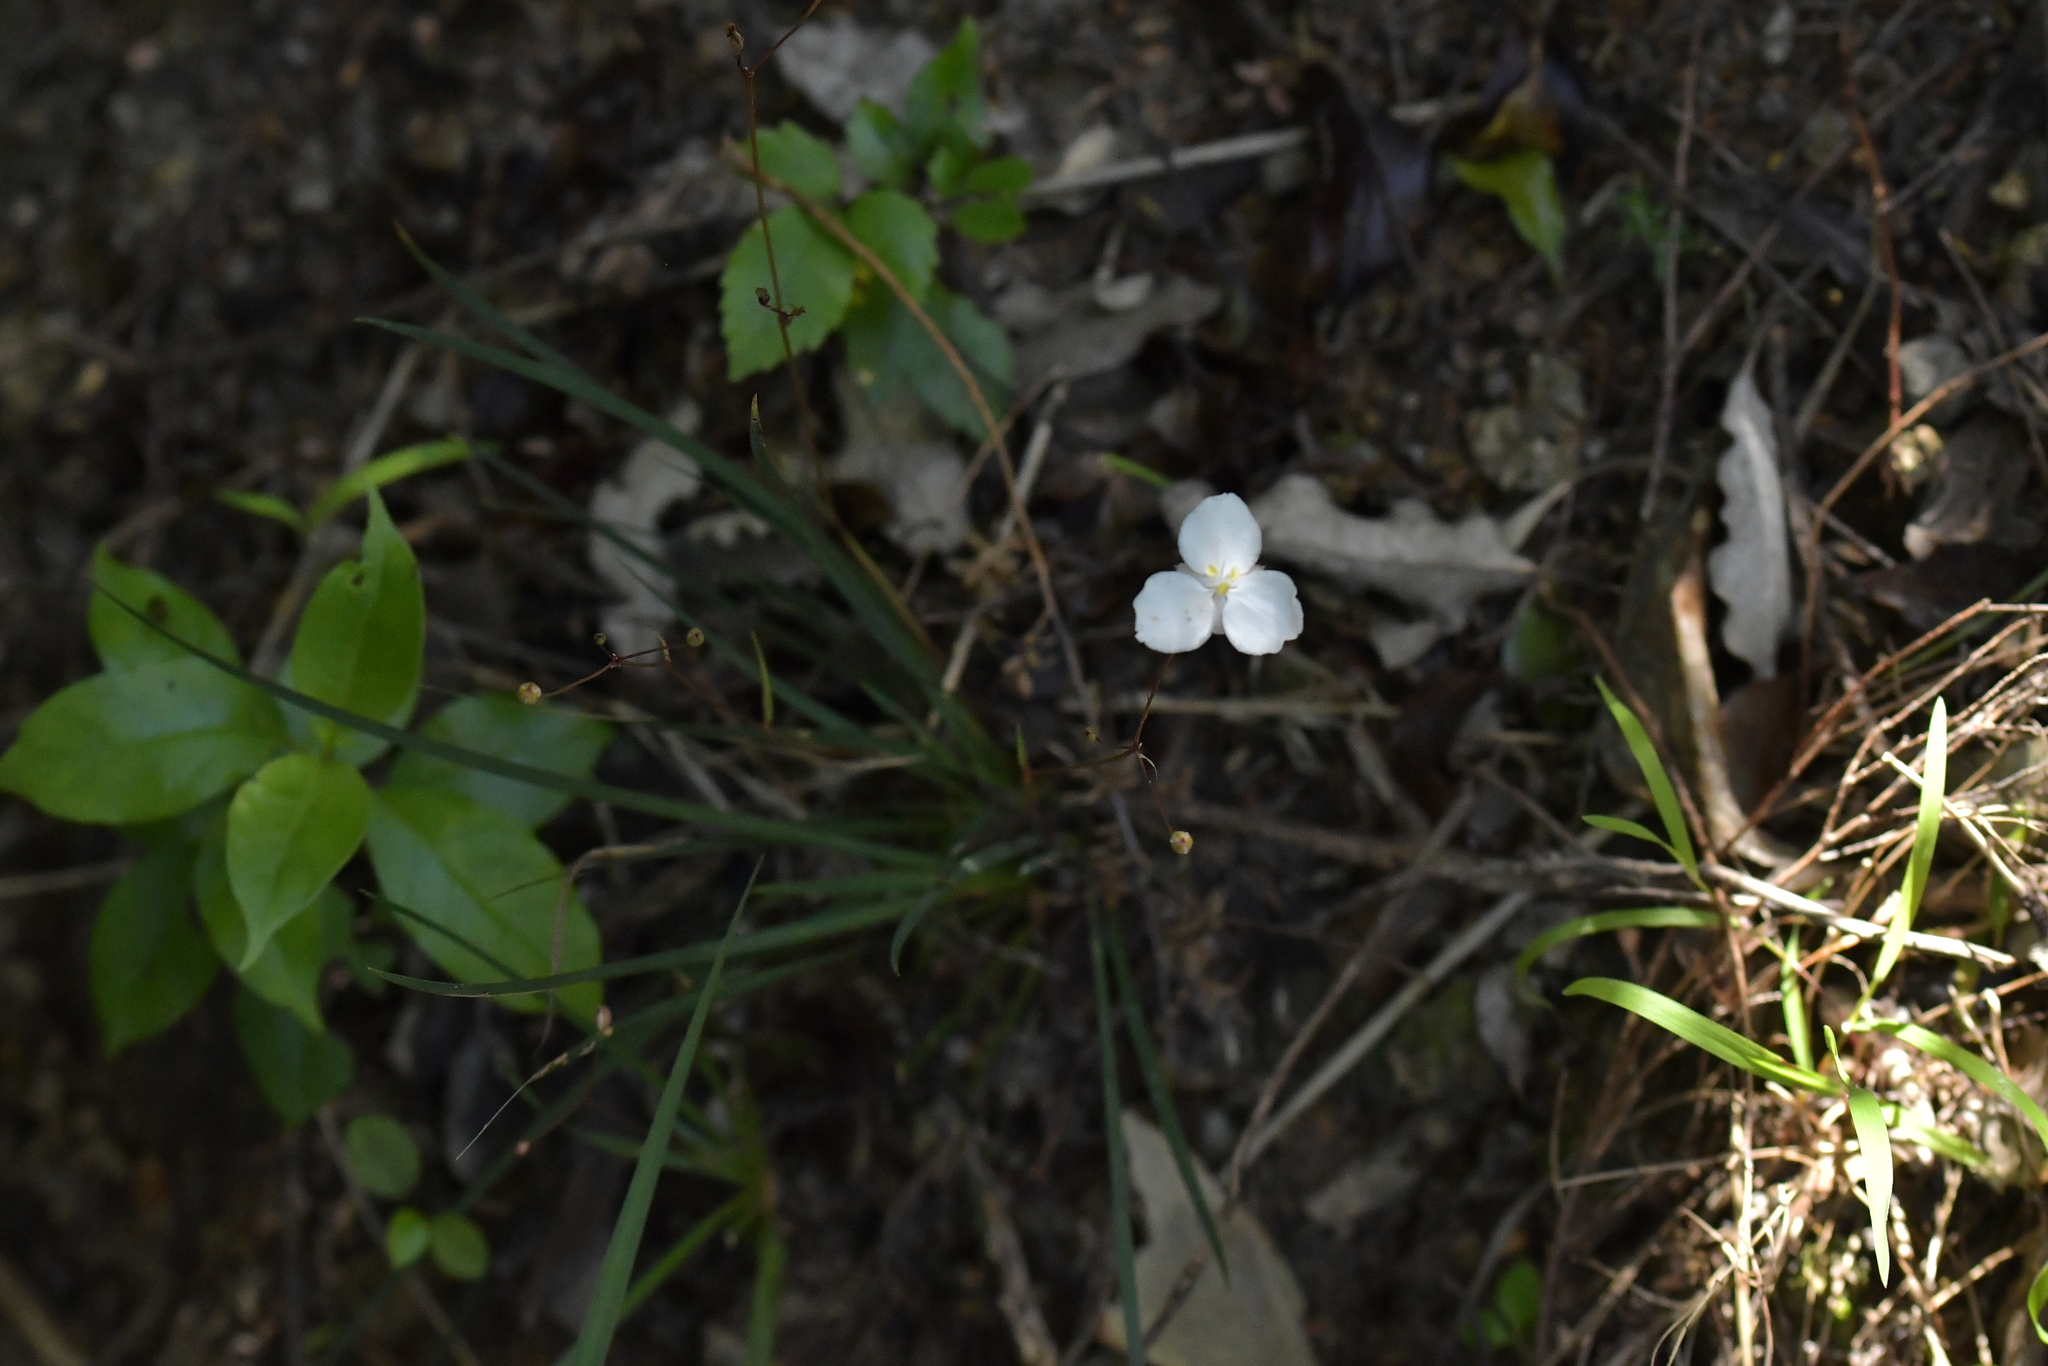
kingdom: Plantae
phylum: Tracheophyta
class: Liliopsida
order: Asparagales
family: Iridaceae
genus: Libertia
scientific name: Libertia ixioides
